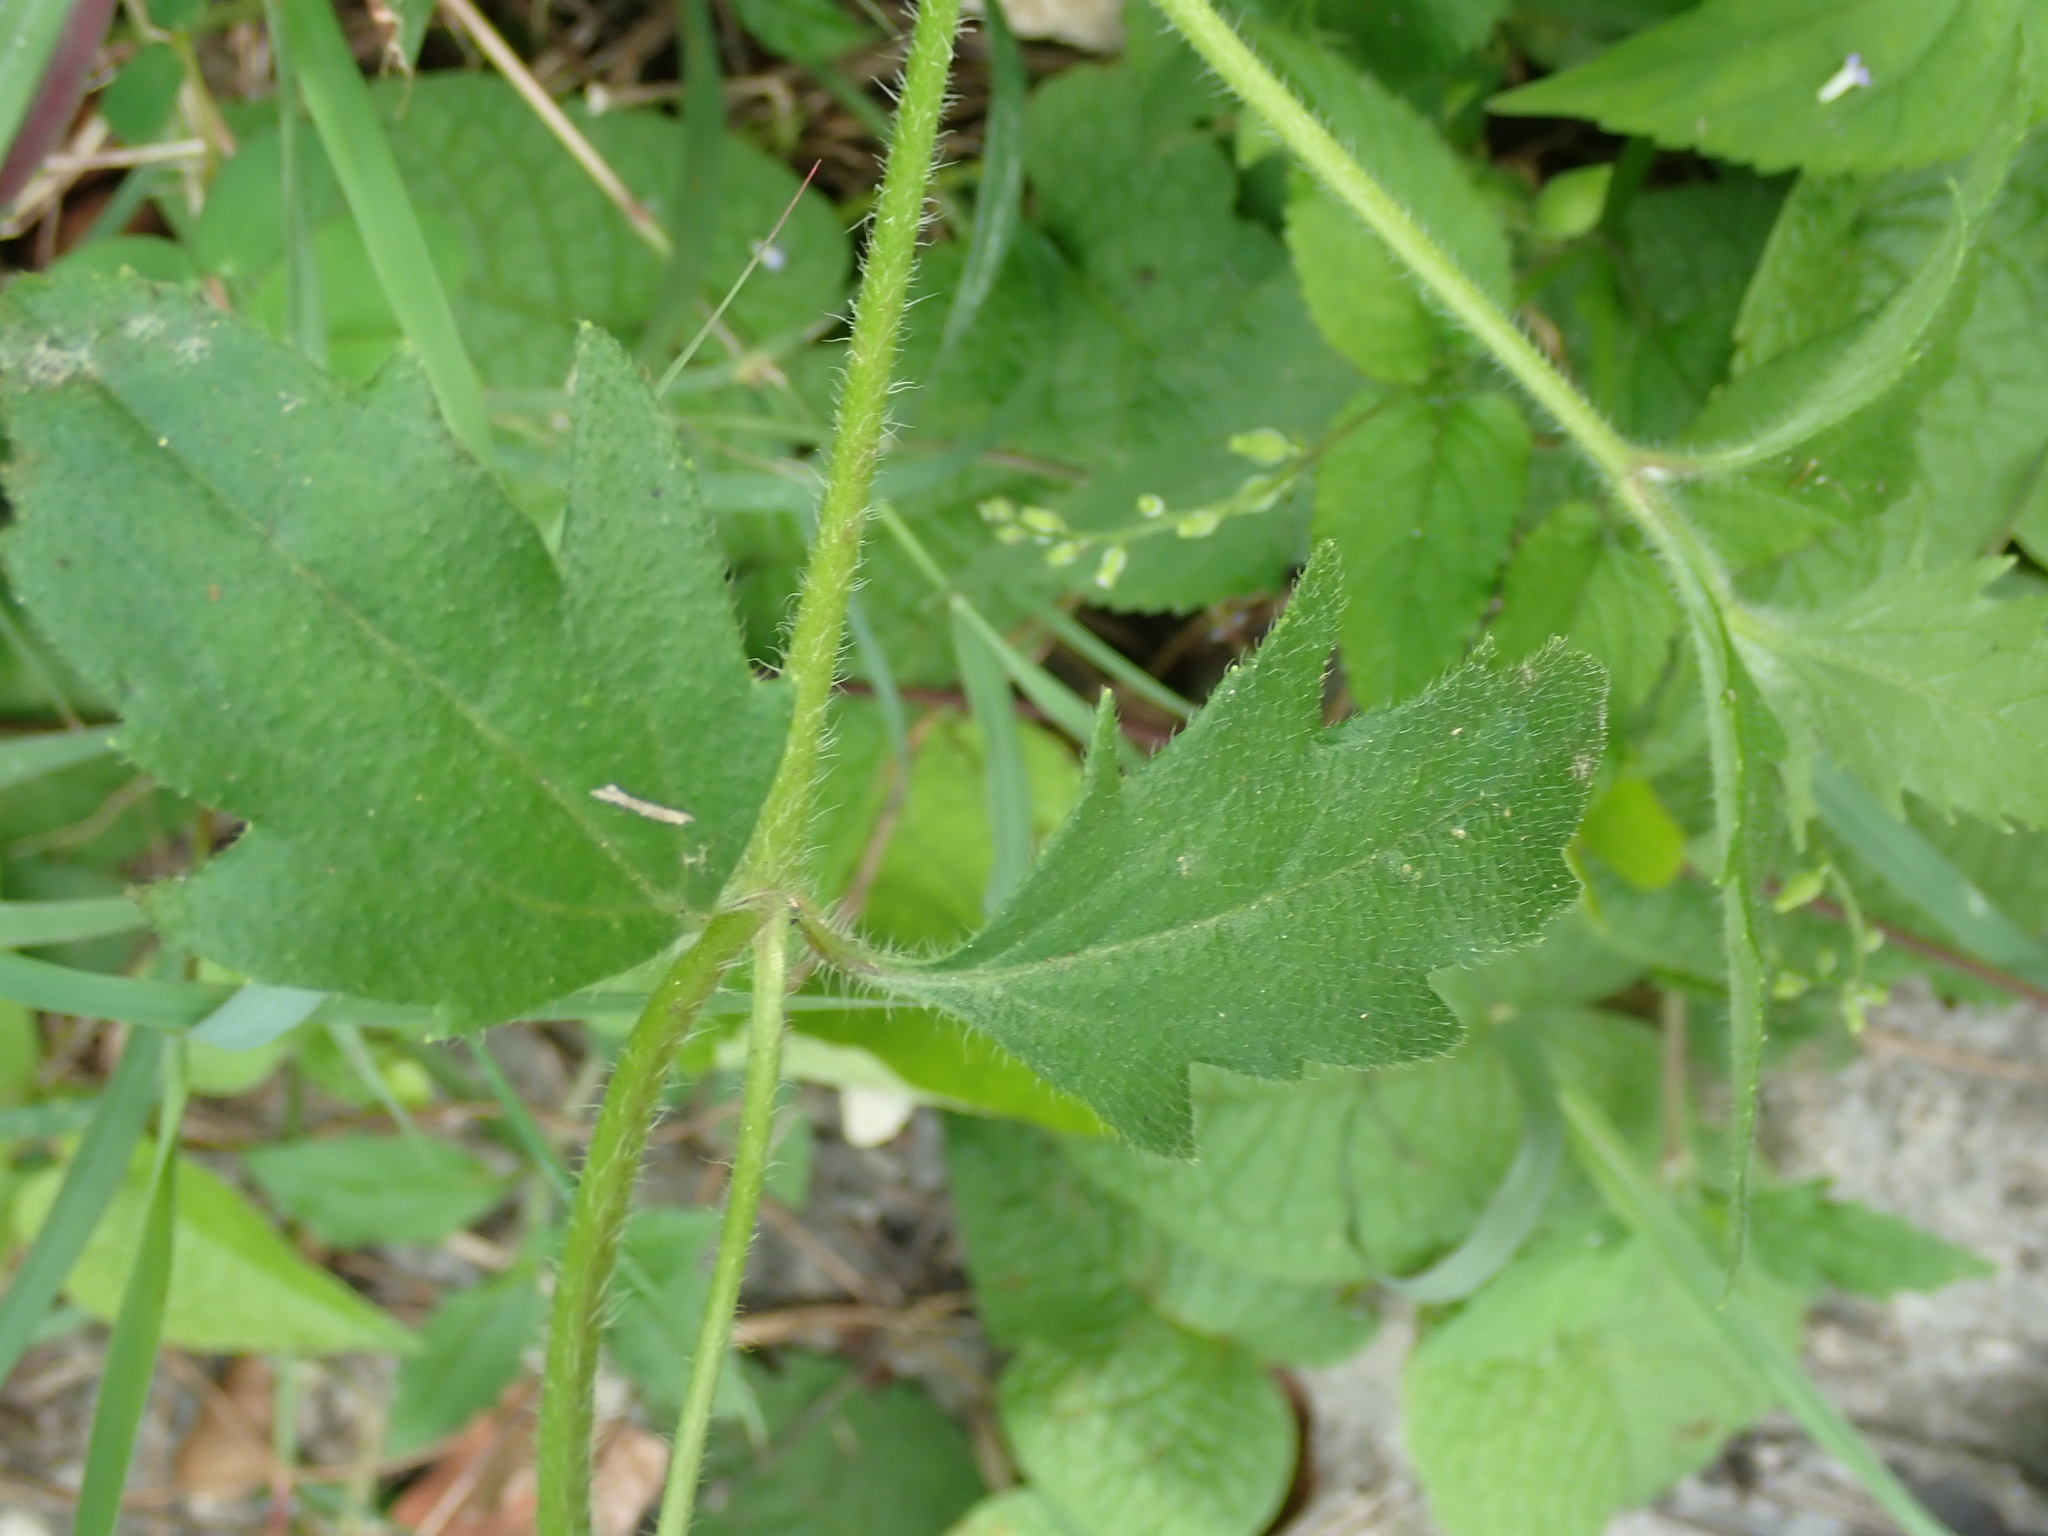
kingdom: Plantae
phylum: Tracheophyta
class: Magnoliopsida
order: Asterales
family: Asteraceae
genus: Tridax
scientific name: Tridax procumbens
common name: Coatbuttons
